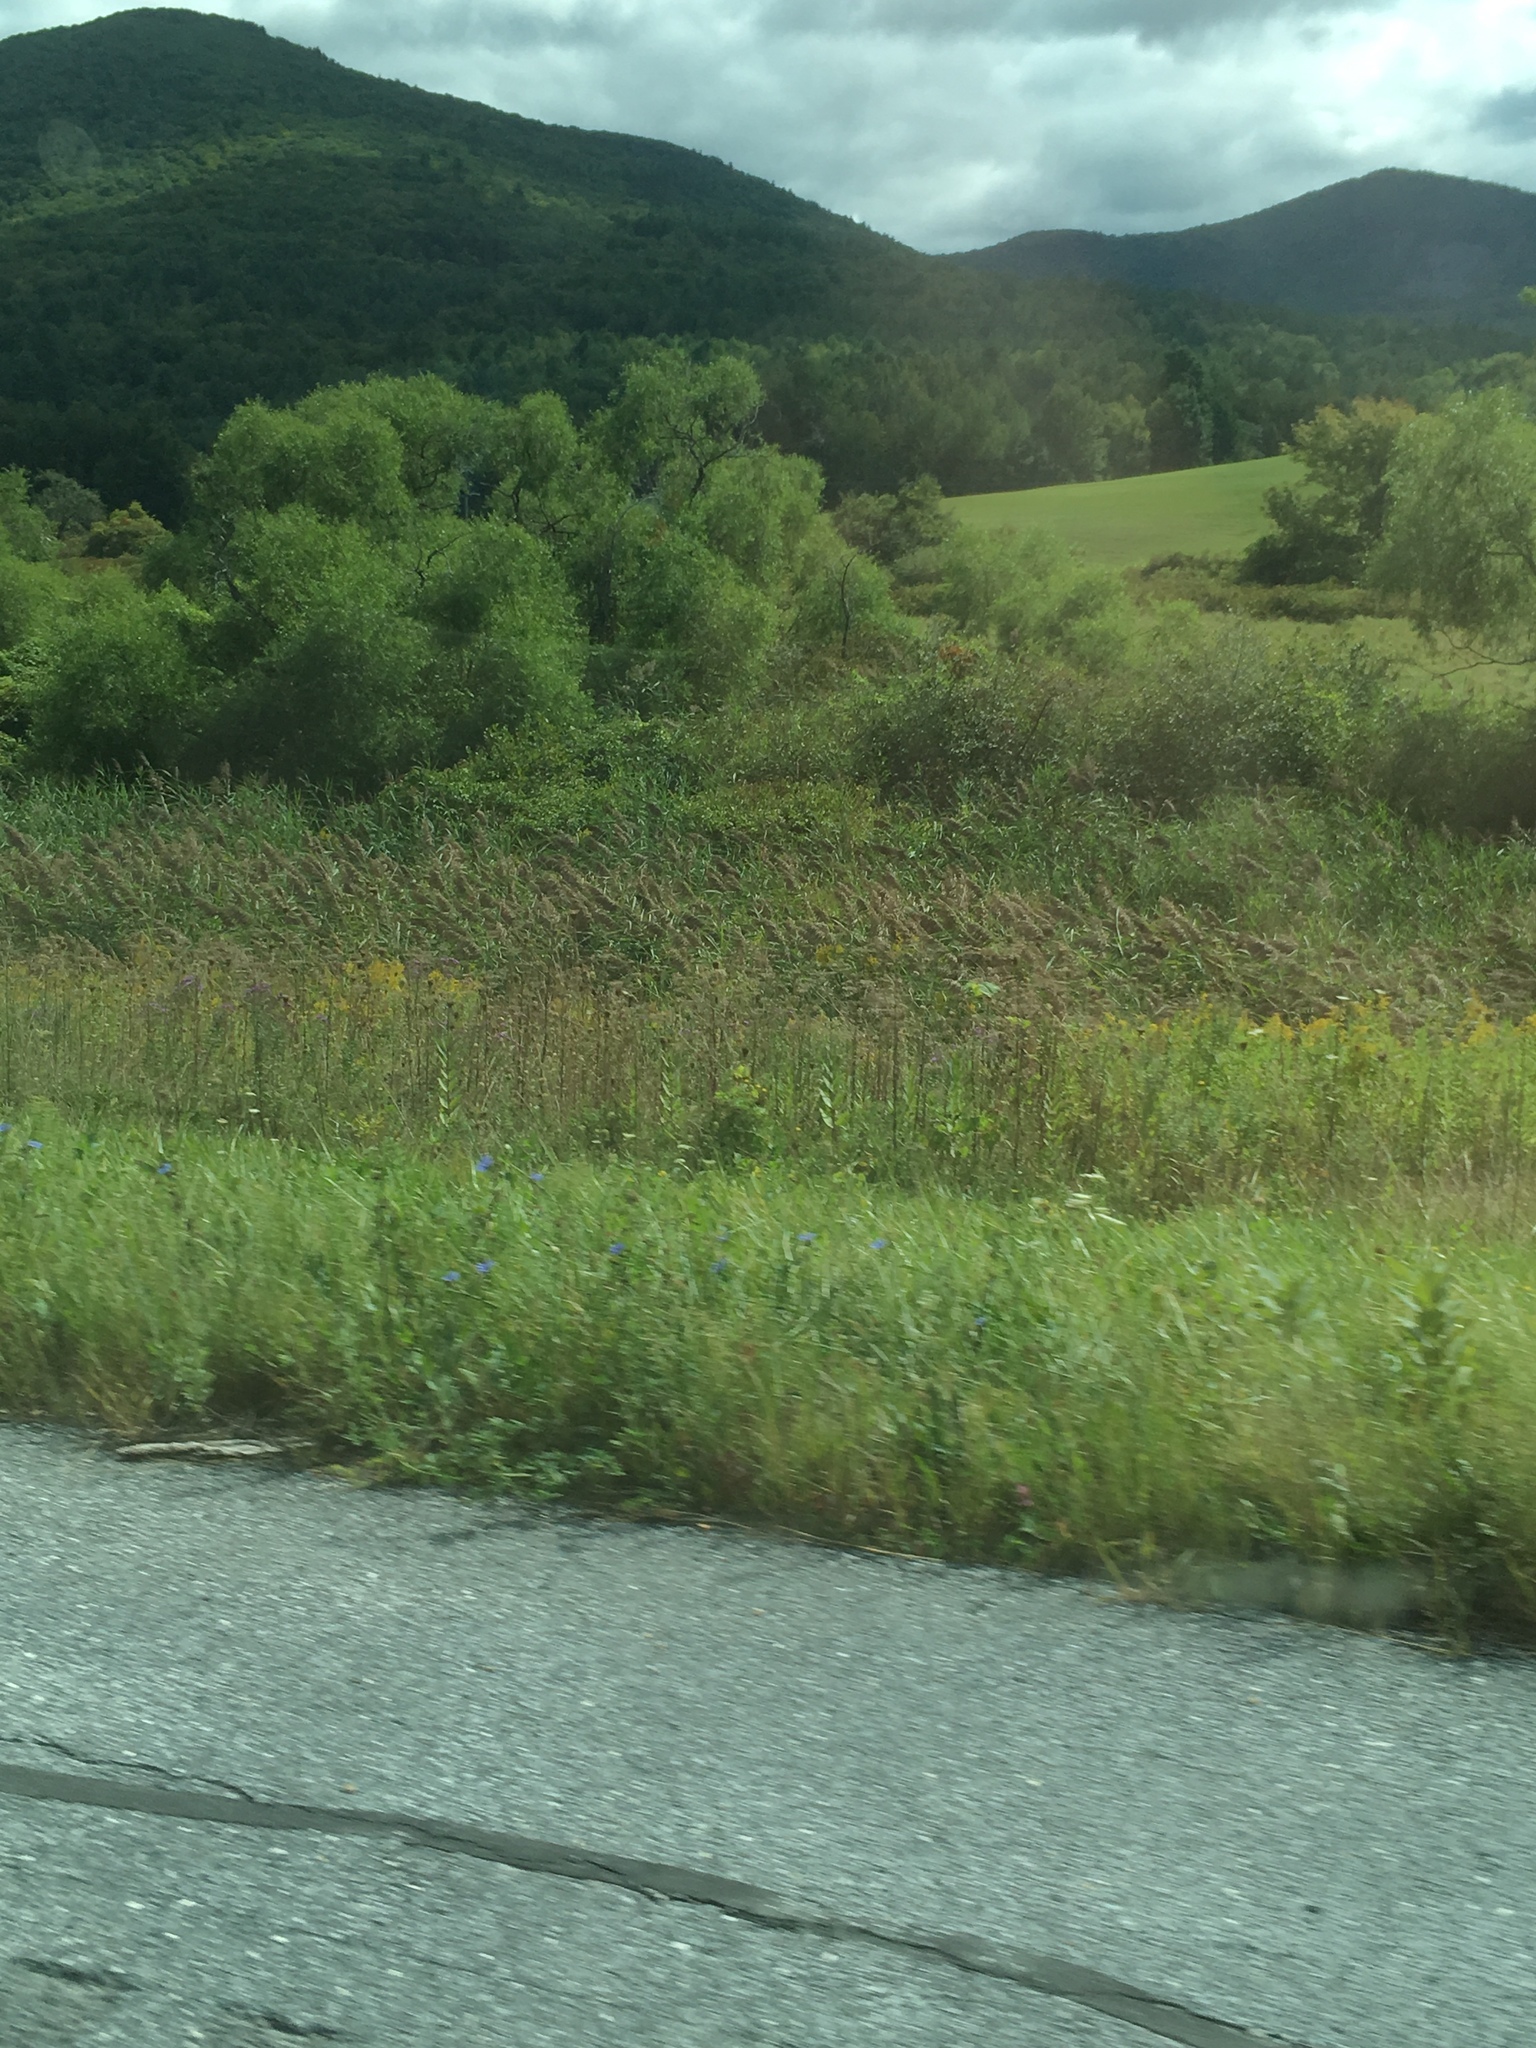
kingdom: Plantae
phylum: Tracheophyta
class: Liliopsida
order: Poales
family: Poaceae
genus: Phragmites
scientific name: Phragmites australis
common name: Common reed
